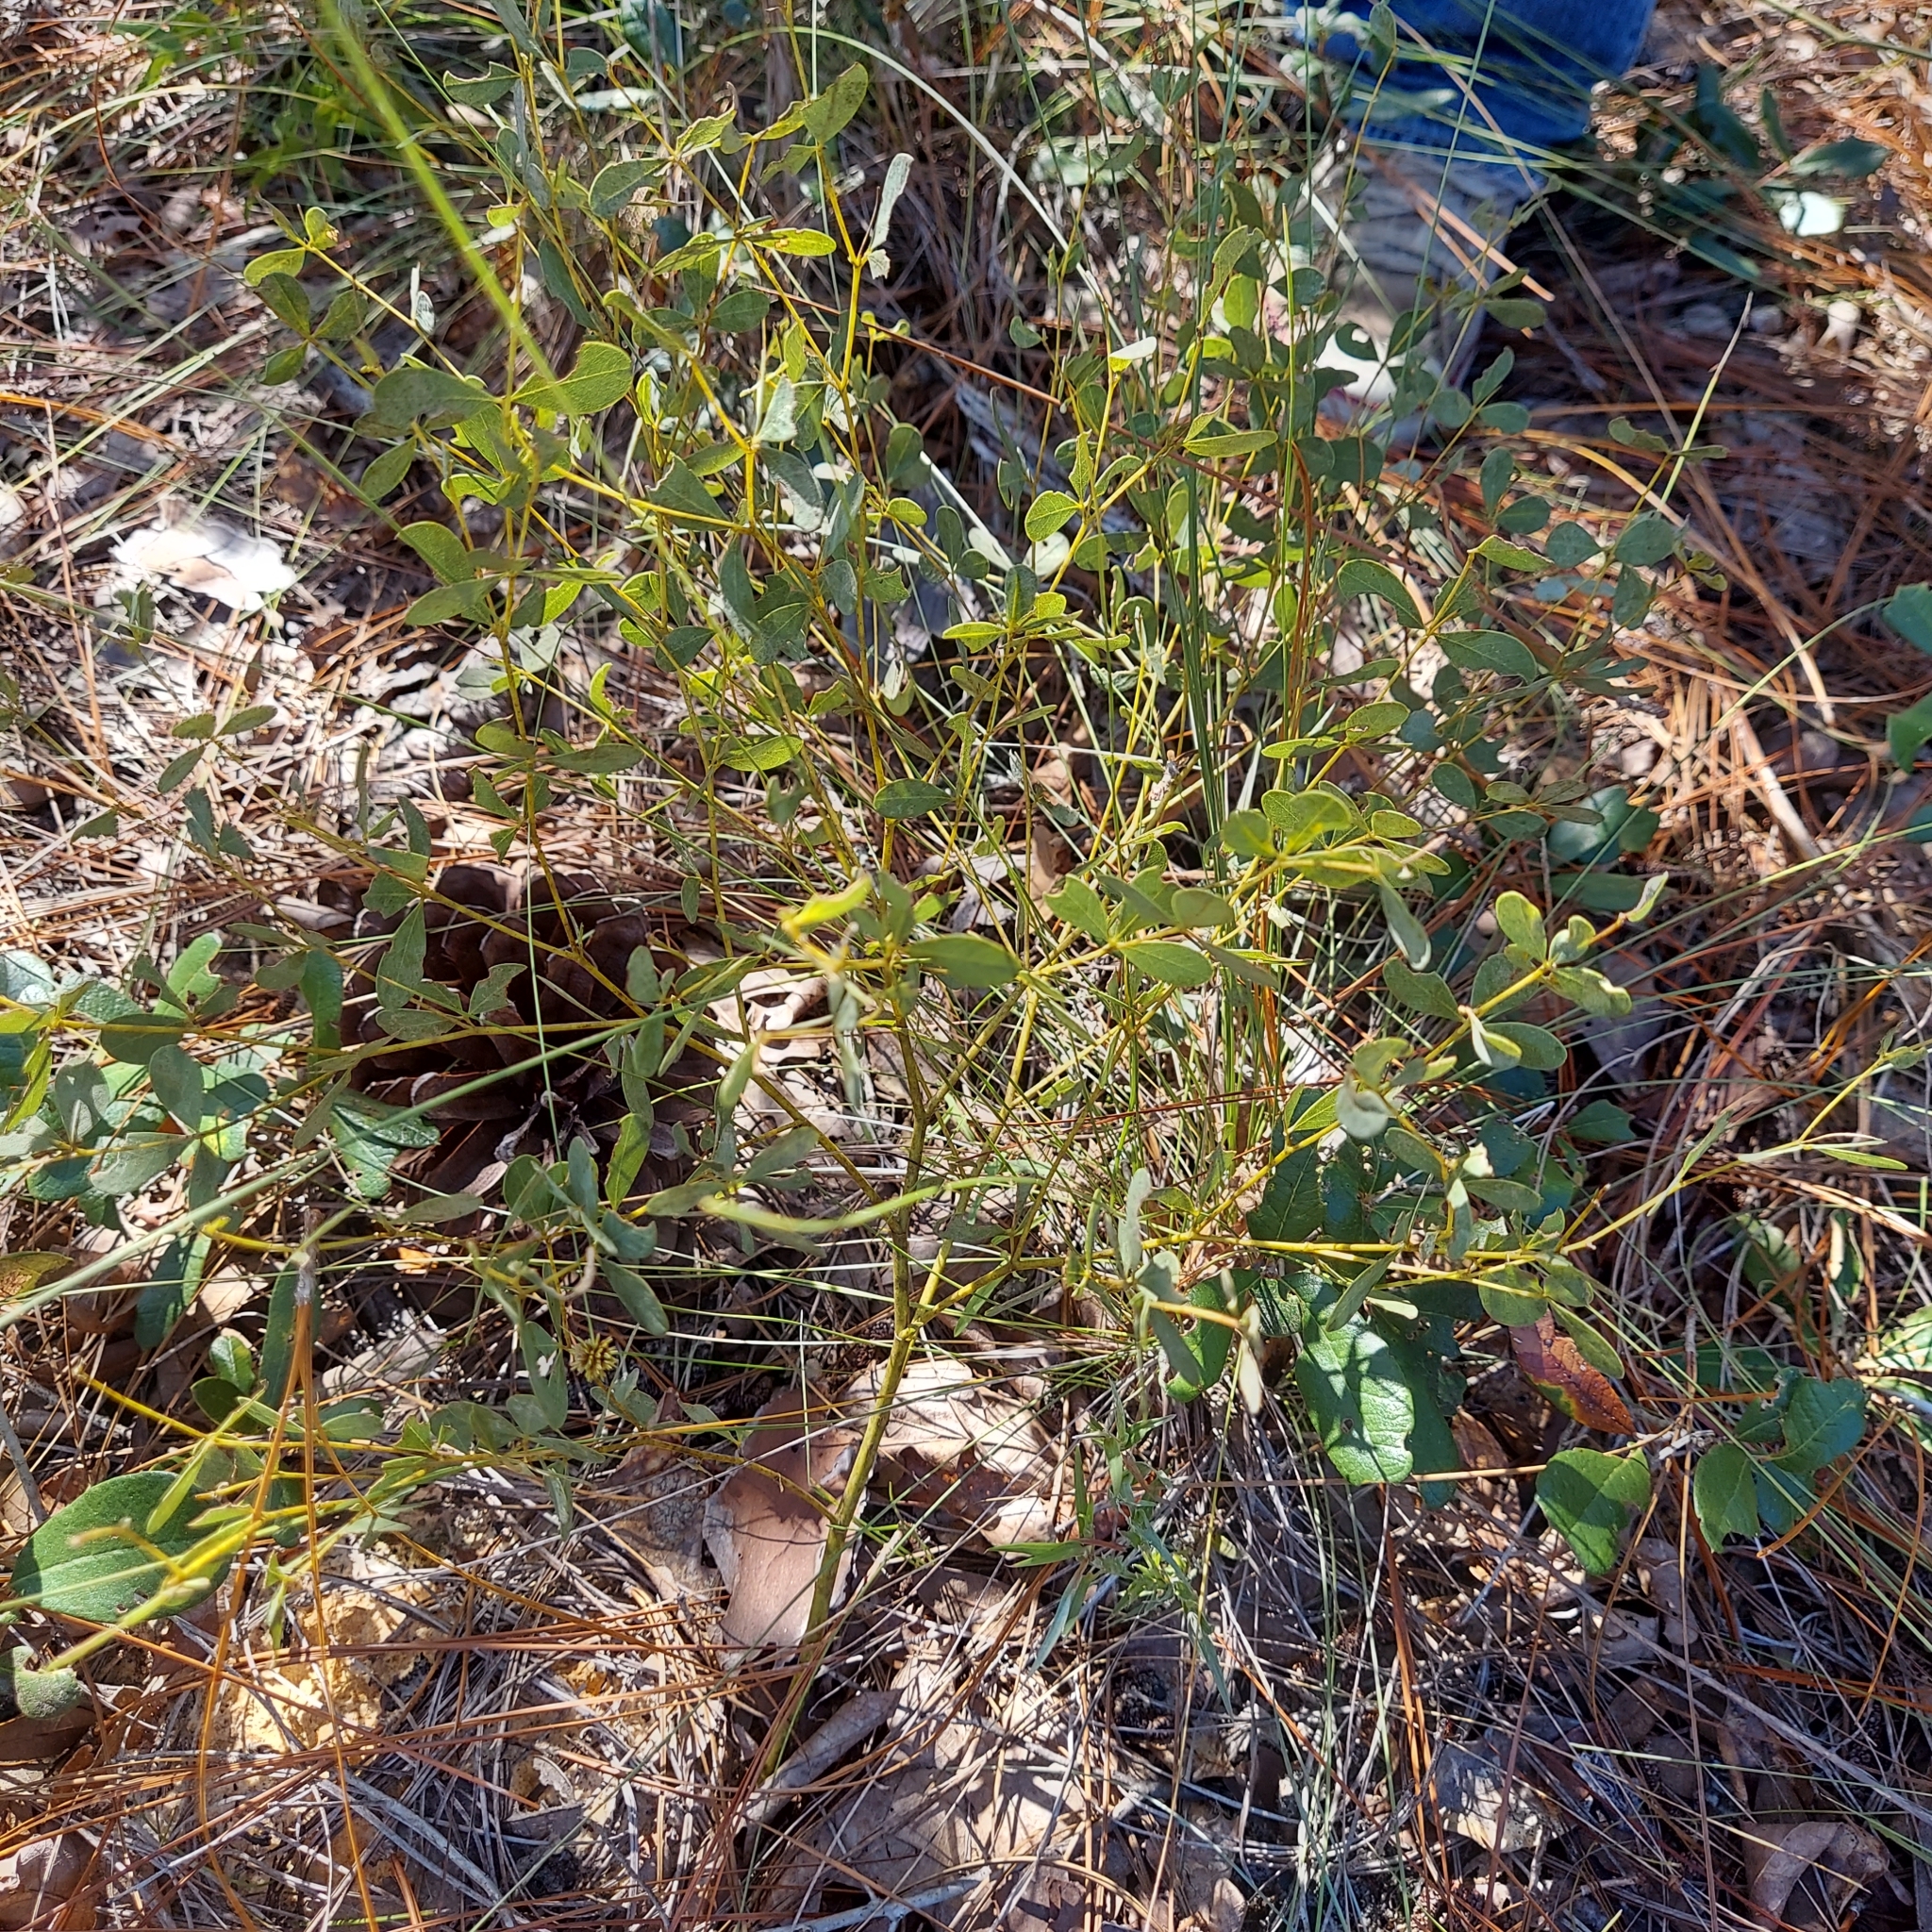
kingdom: Plantae
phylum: Tracheophyta
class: Magnoliopsida
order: Fabales
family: Fabaceae
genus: Baptisia
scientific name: Baptisia lecontei
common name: Pineland wild indigo
